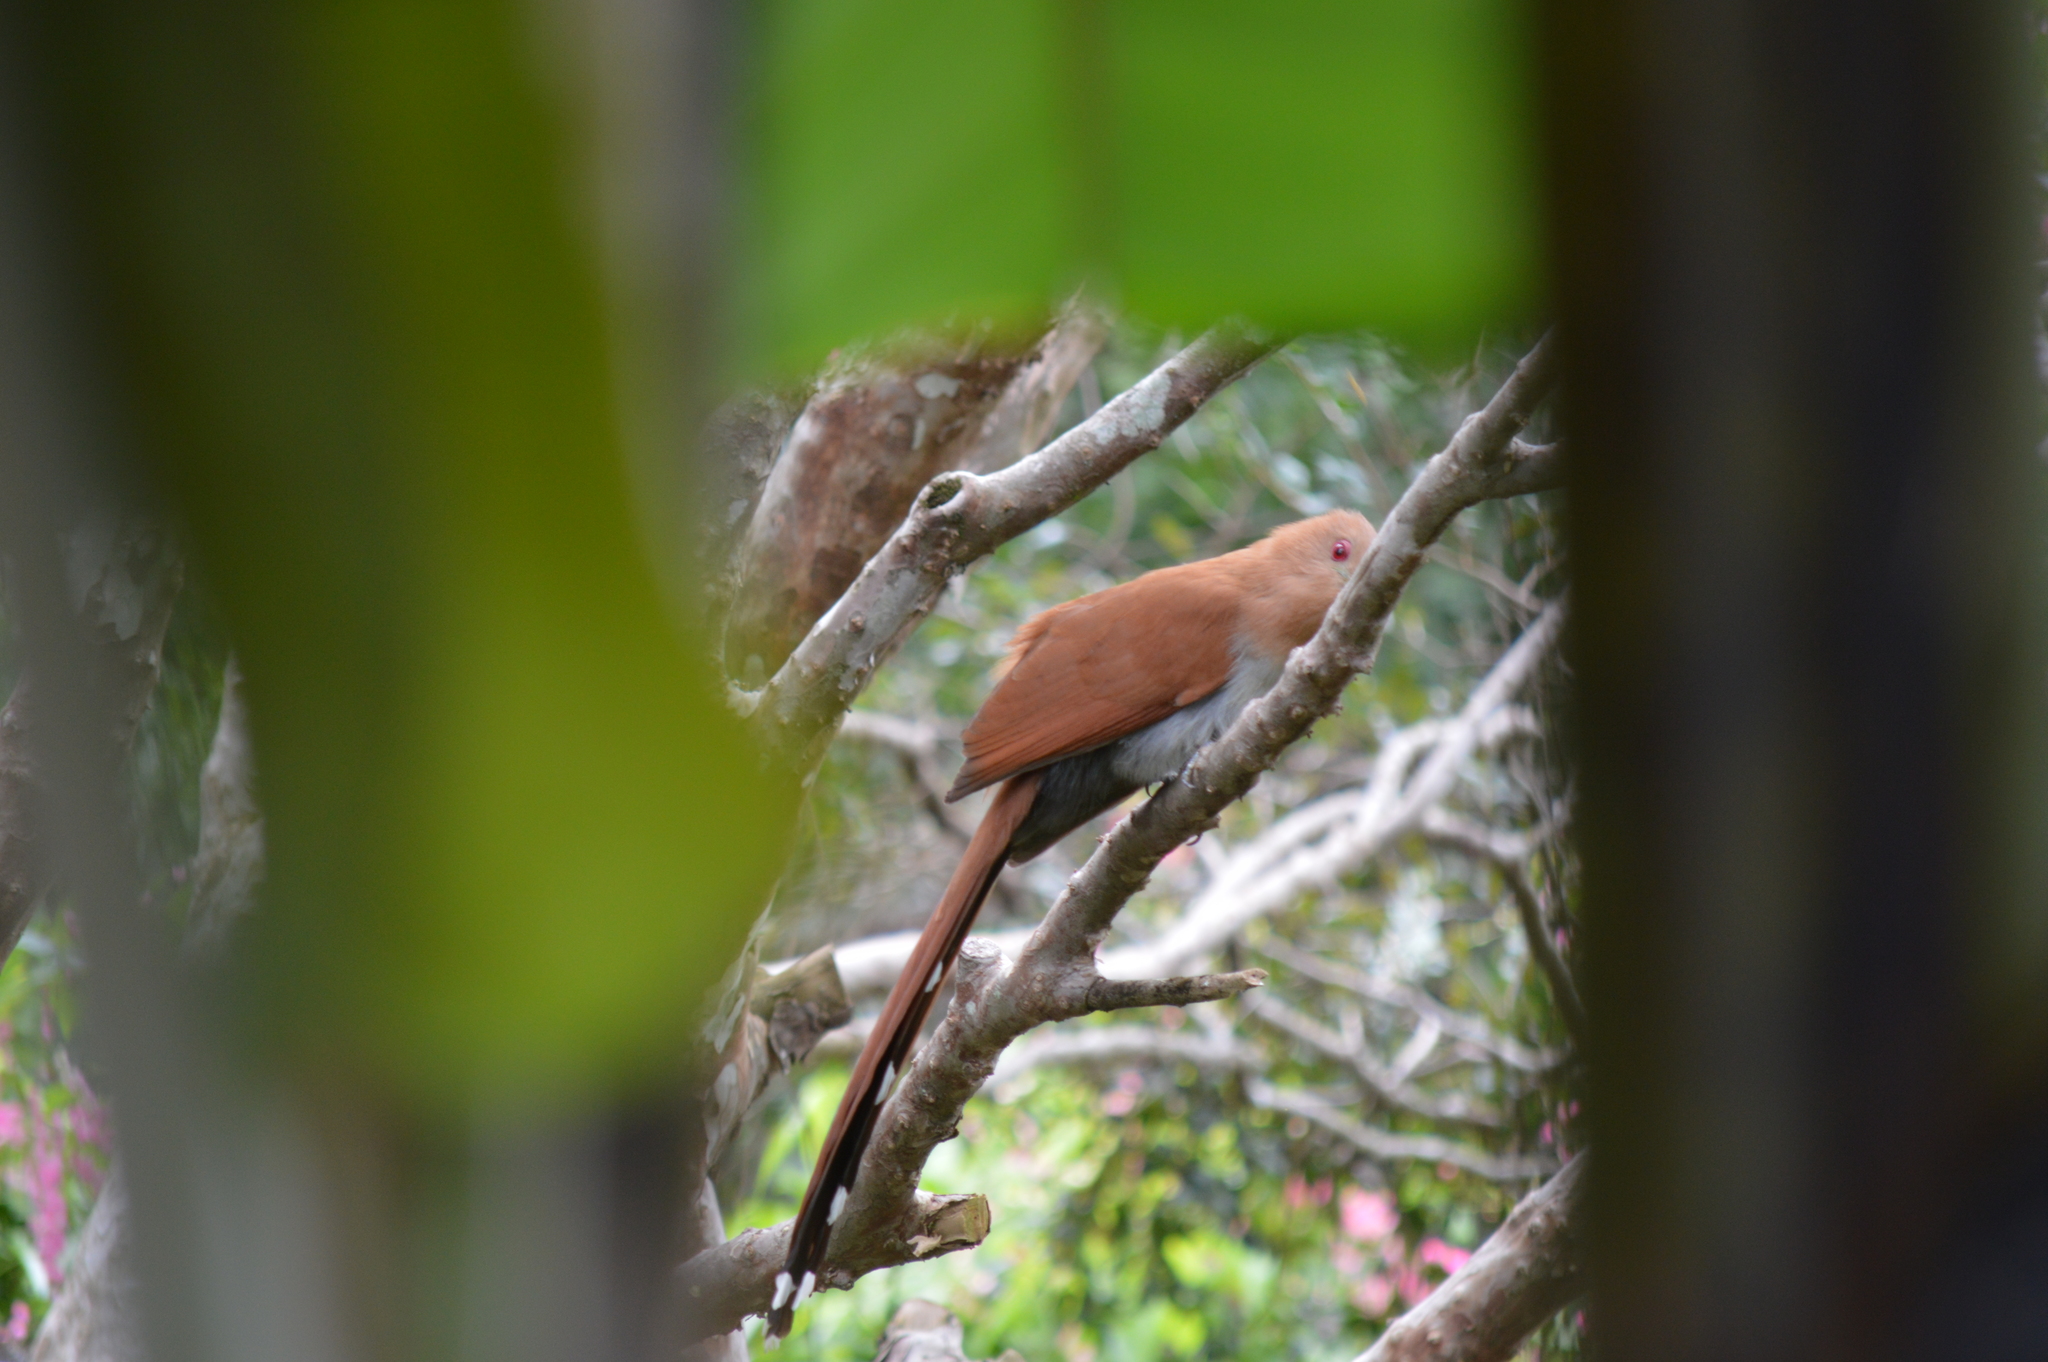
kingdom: Animalia
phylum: Chordata
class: Aves
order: Cuculiformes
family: Cuculidae
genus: Piaya
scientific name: Piaya cayana
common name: Squirrel cuckoo
